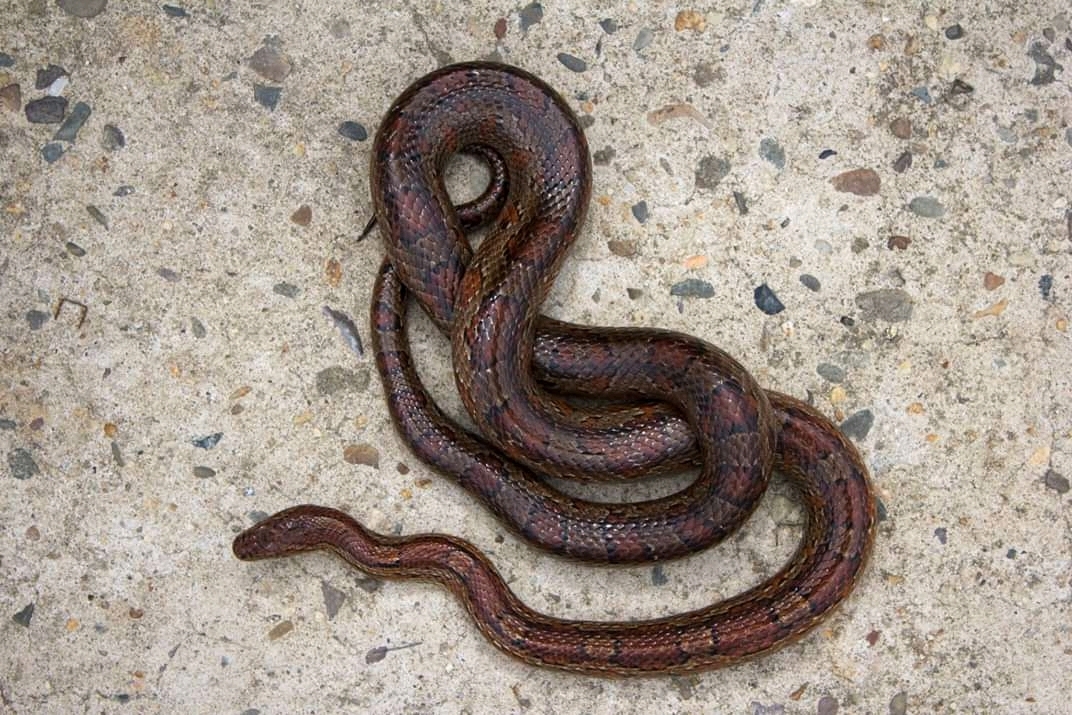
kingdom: Animalia
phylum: Chordata
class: Squamata
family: Colubridae
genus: Pantherophis
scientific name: Pantherophis guttatus
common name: Red cornsnake
